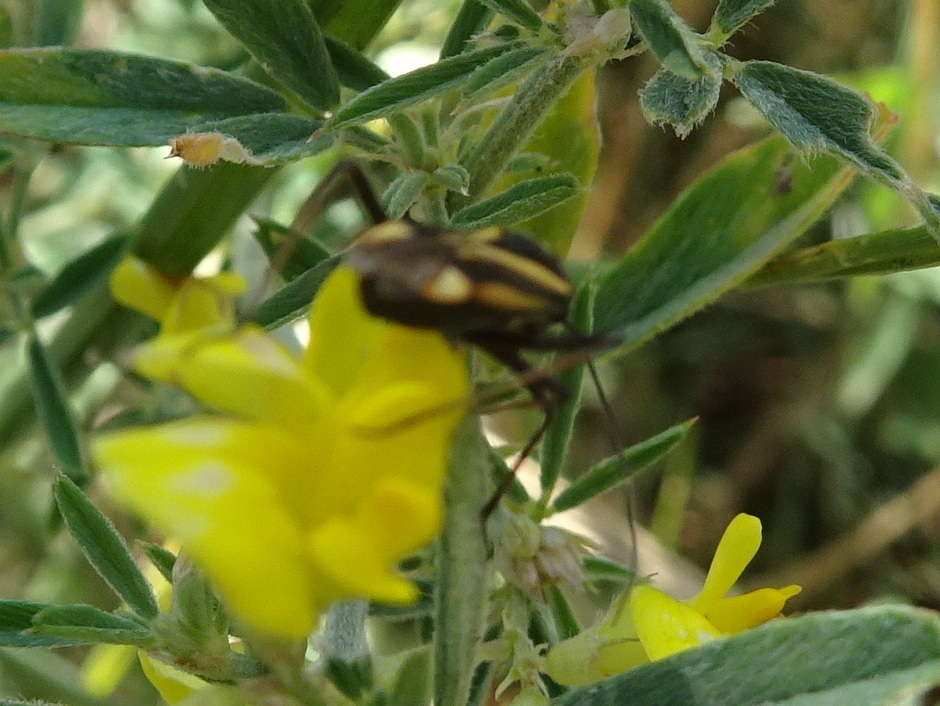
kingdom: Animalia
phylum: Arthropoda
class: Insecta
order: Hemiptera
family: Miridae
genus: Hadrodemus
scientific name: Hadrodemus m-flavum
